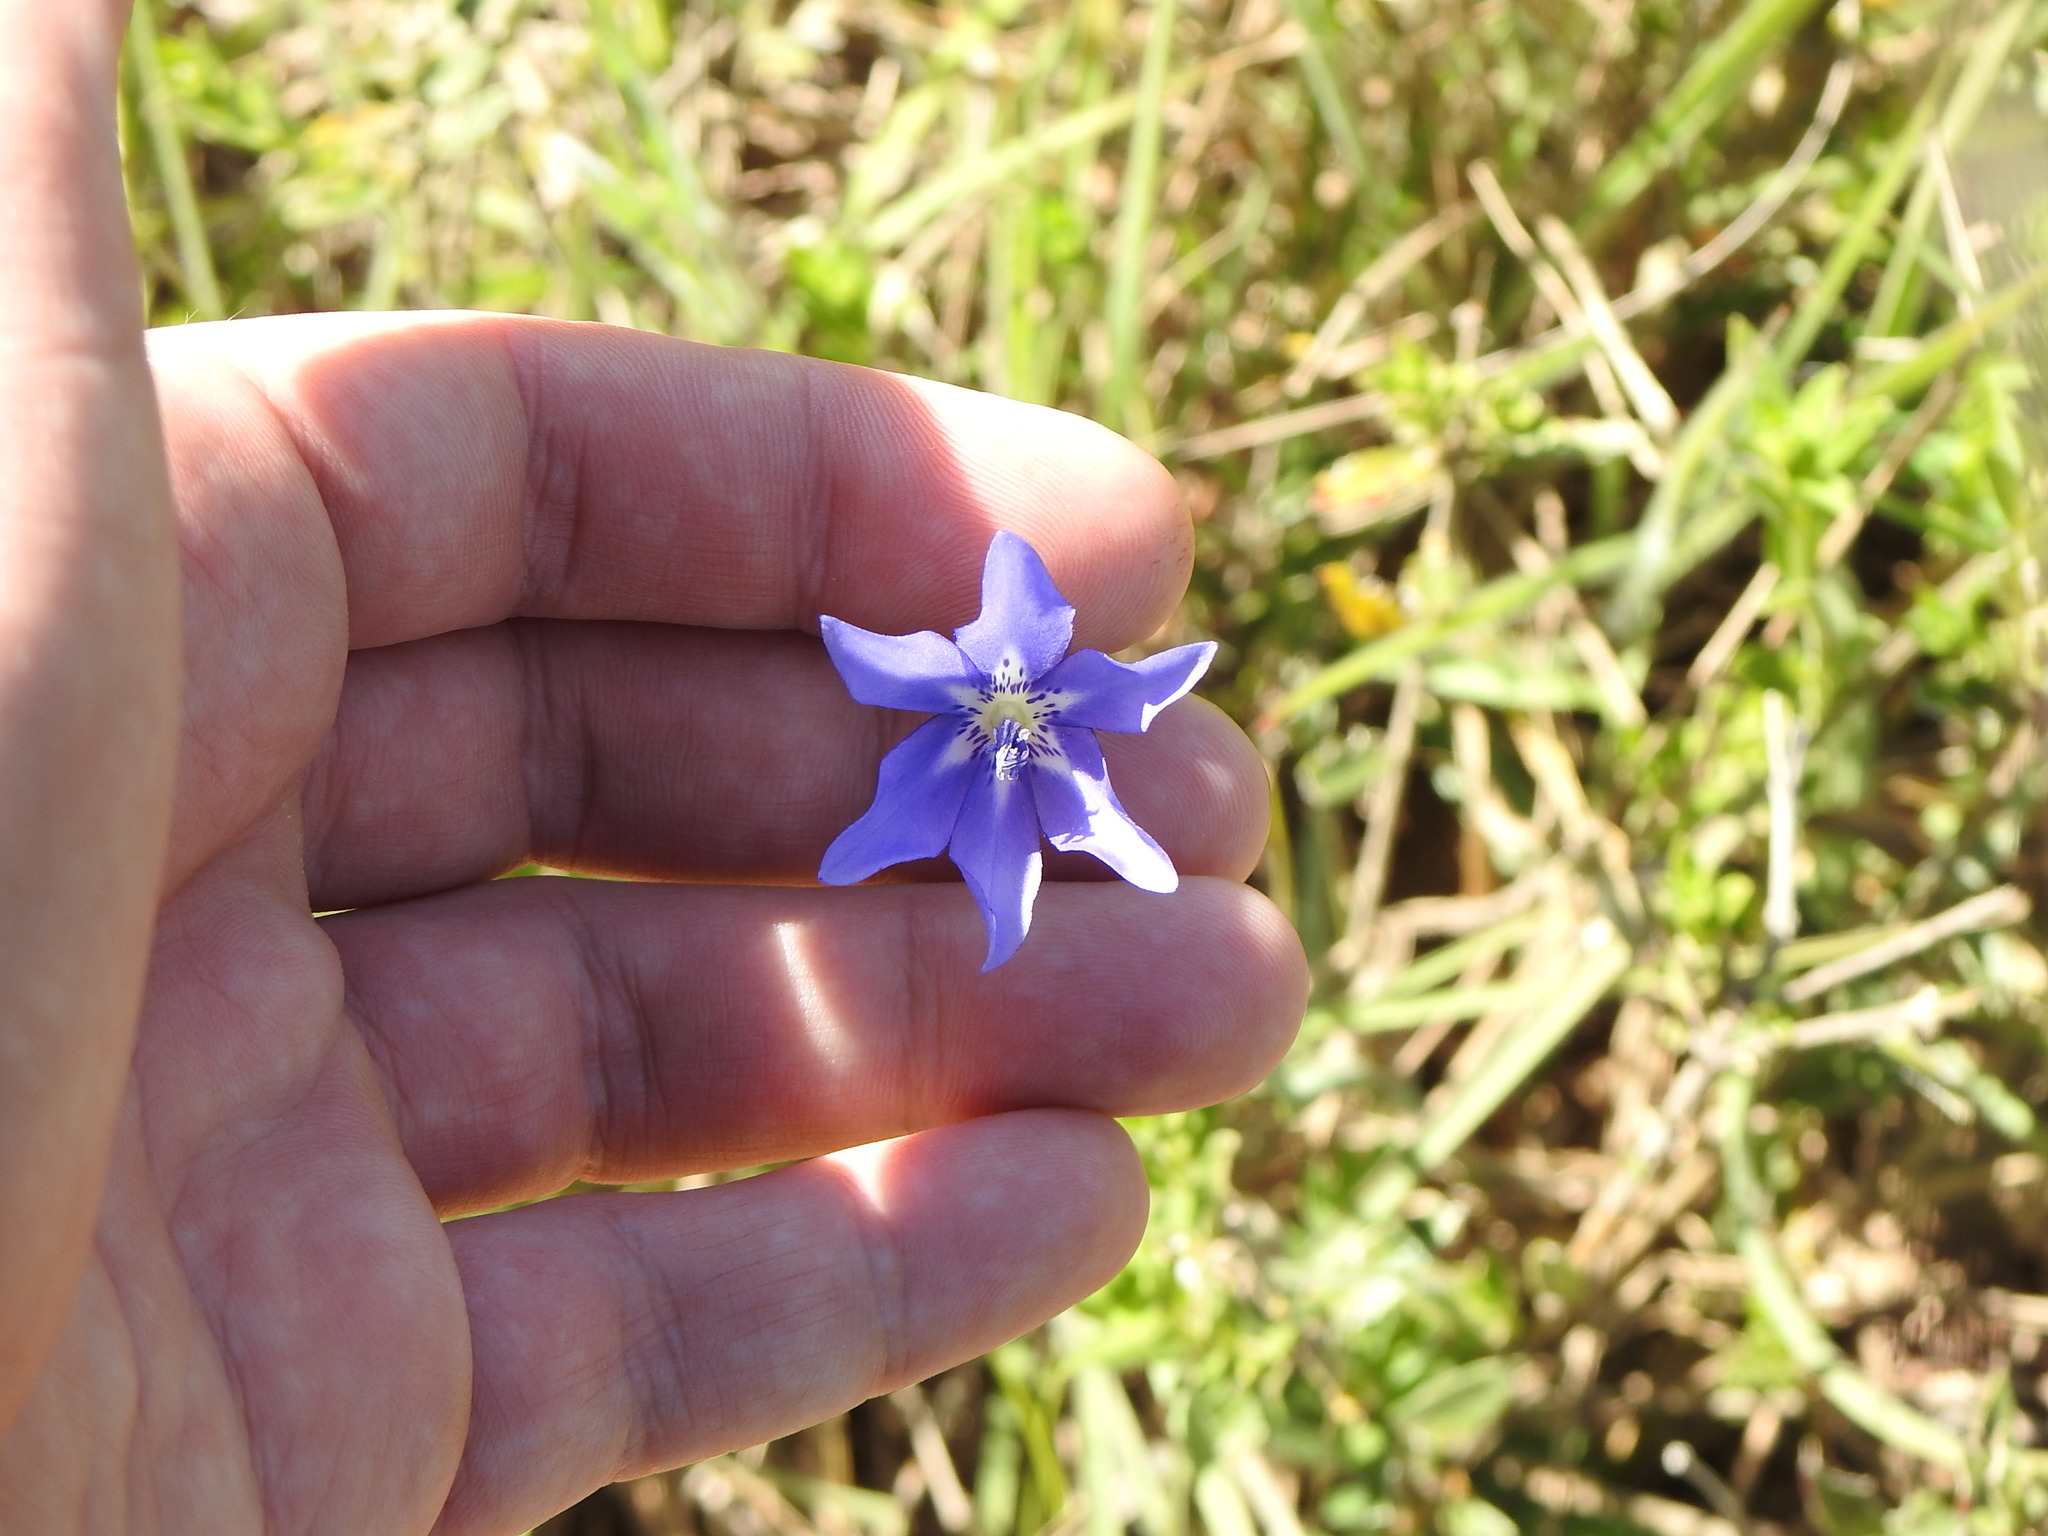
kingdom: Plantae
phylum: Tracheophyta
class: Liliopsida
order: Asparagales
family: Iridaceae
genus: Gelasine
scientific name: Gelasine elongata
